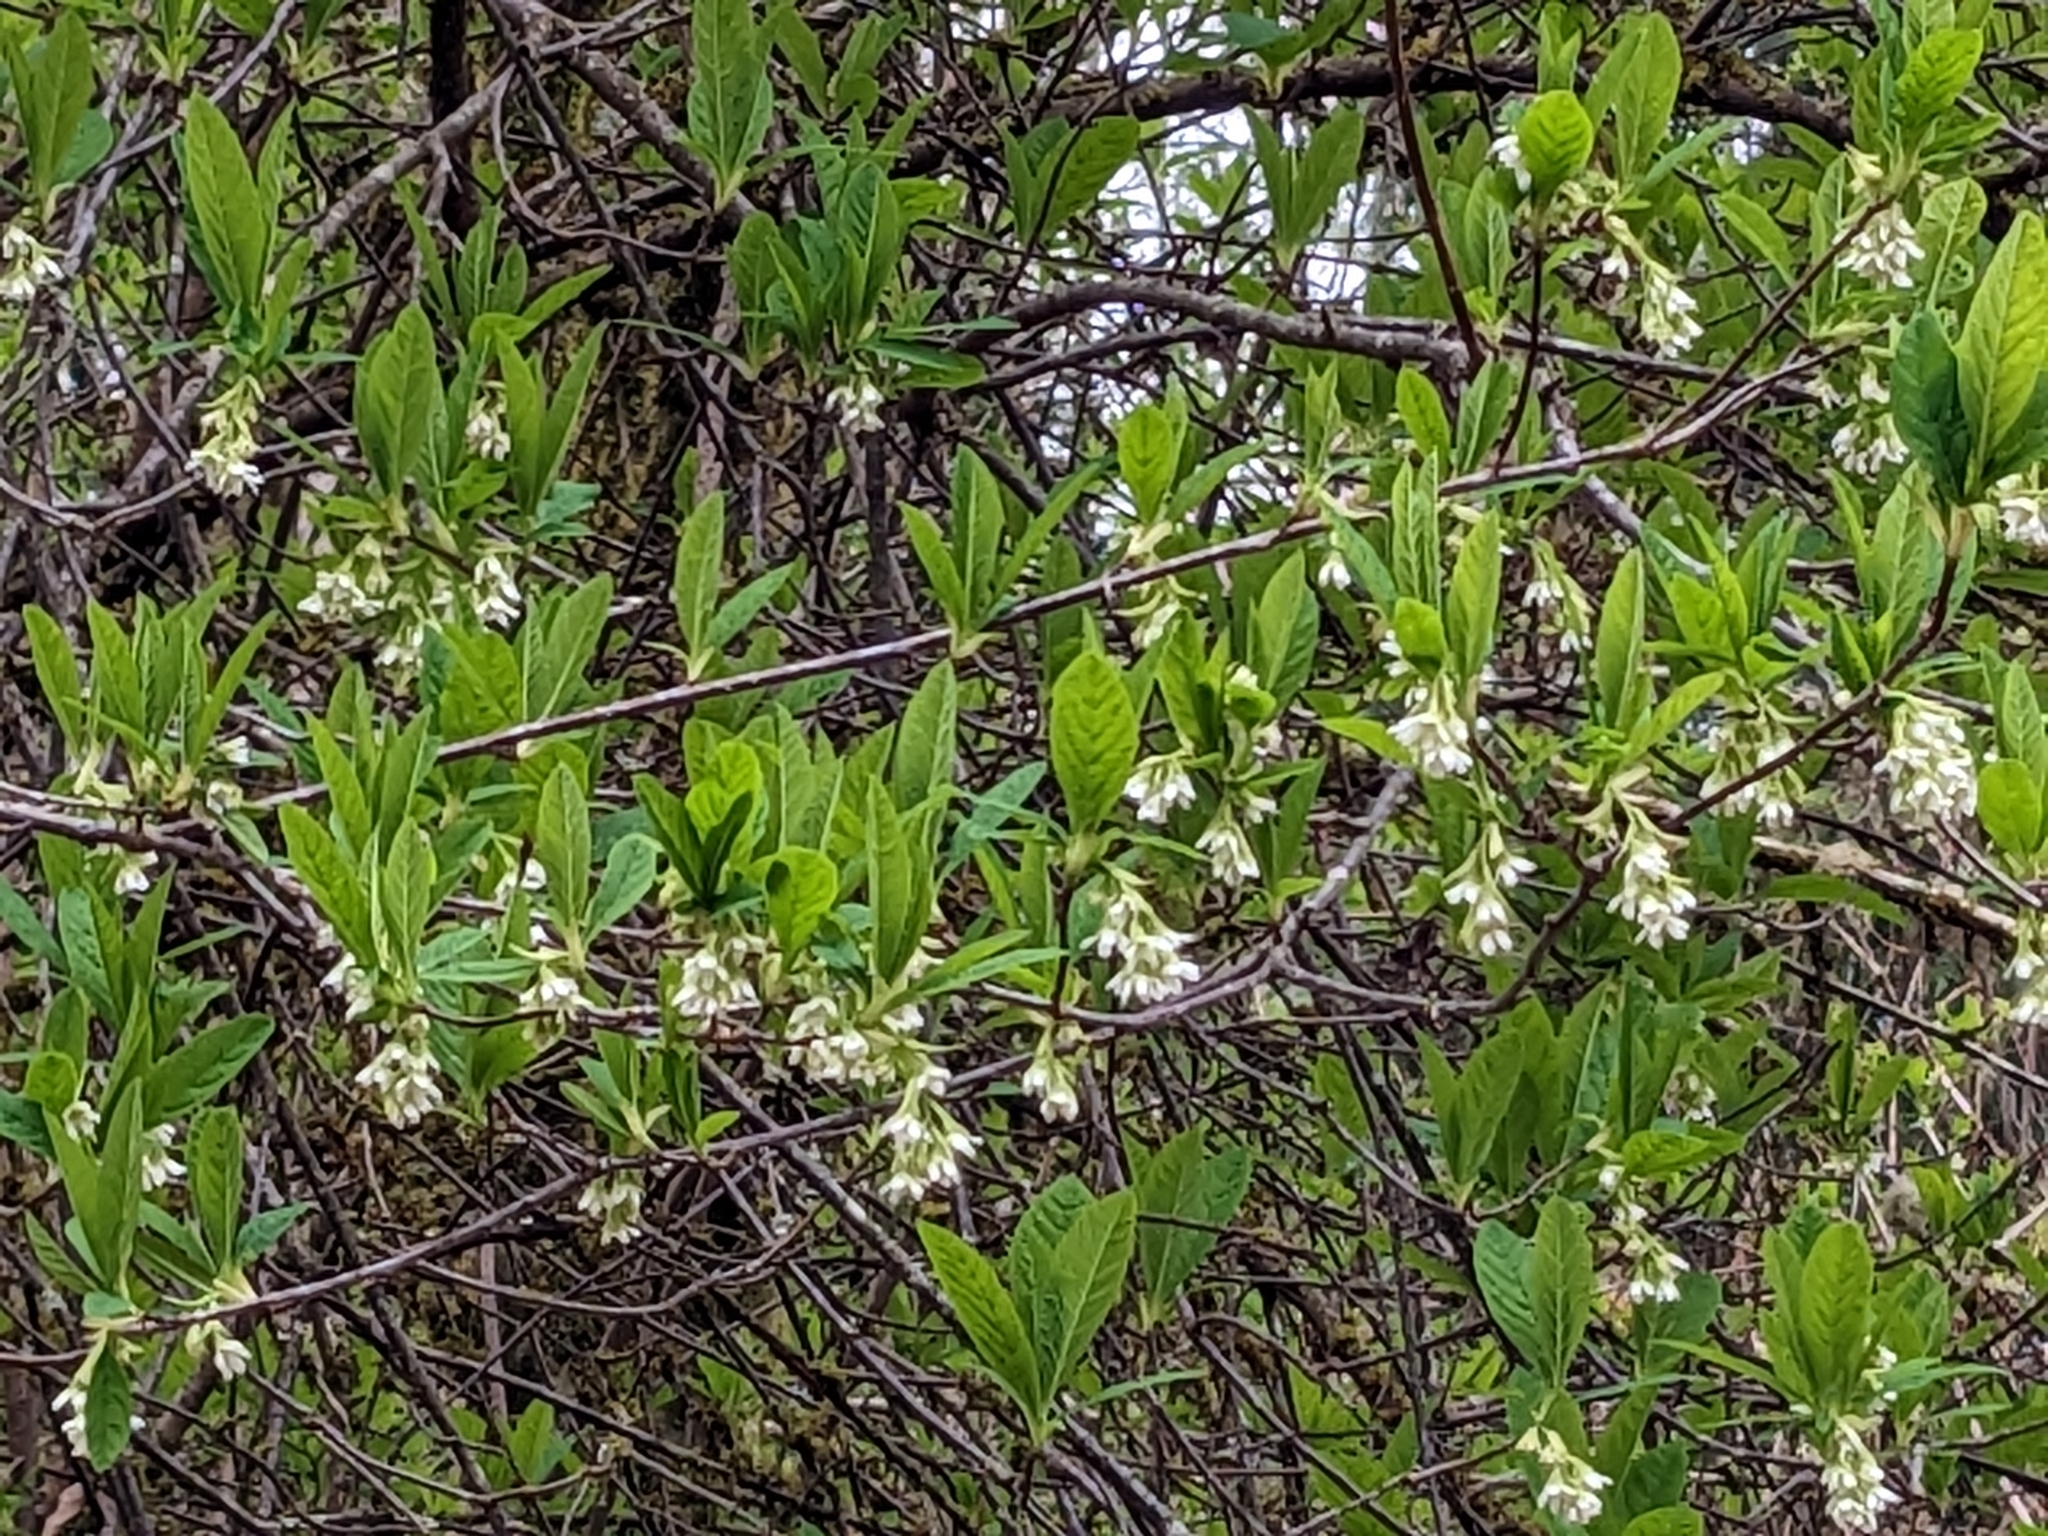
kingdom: Plantae
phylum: Tracheophyta
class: Magnoliopsida
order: Rosales
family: Rosaceae
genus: Oemleria
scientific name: Oemleria cerasiformis
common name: Osoberry
